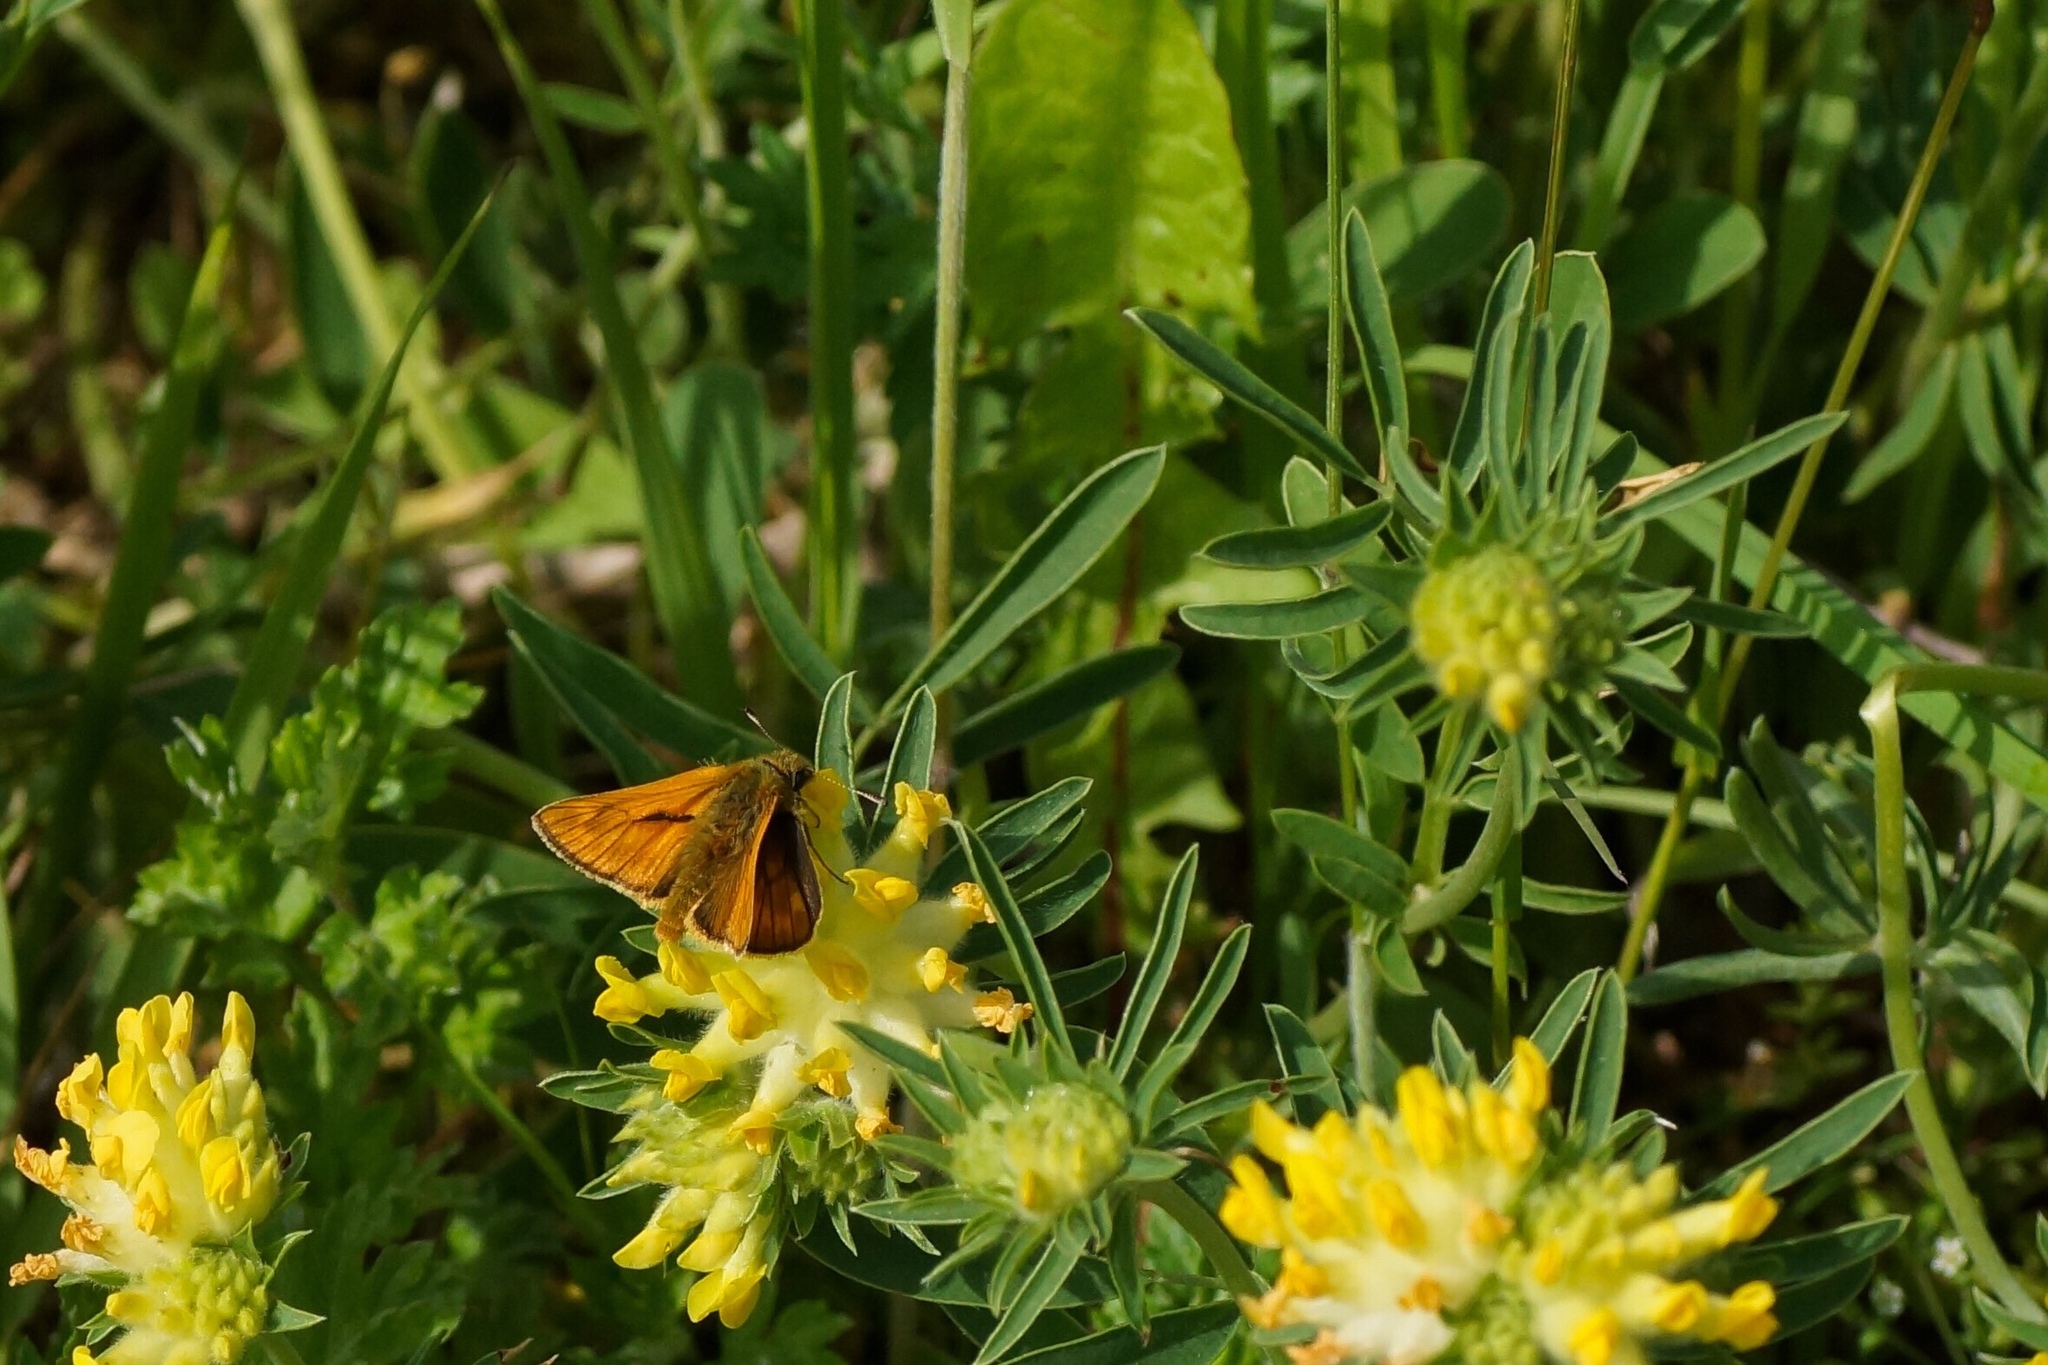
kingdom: Animalia
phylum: Arthropoda
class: Insecta
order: Lepidoptera
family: Hesperiidae
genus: Ochlodes
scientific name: Ochlodes venata
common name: Large skipper
